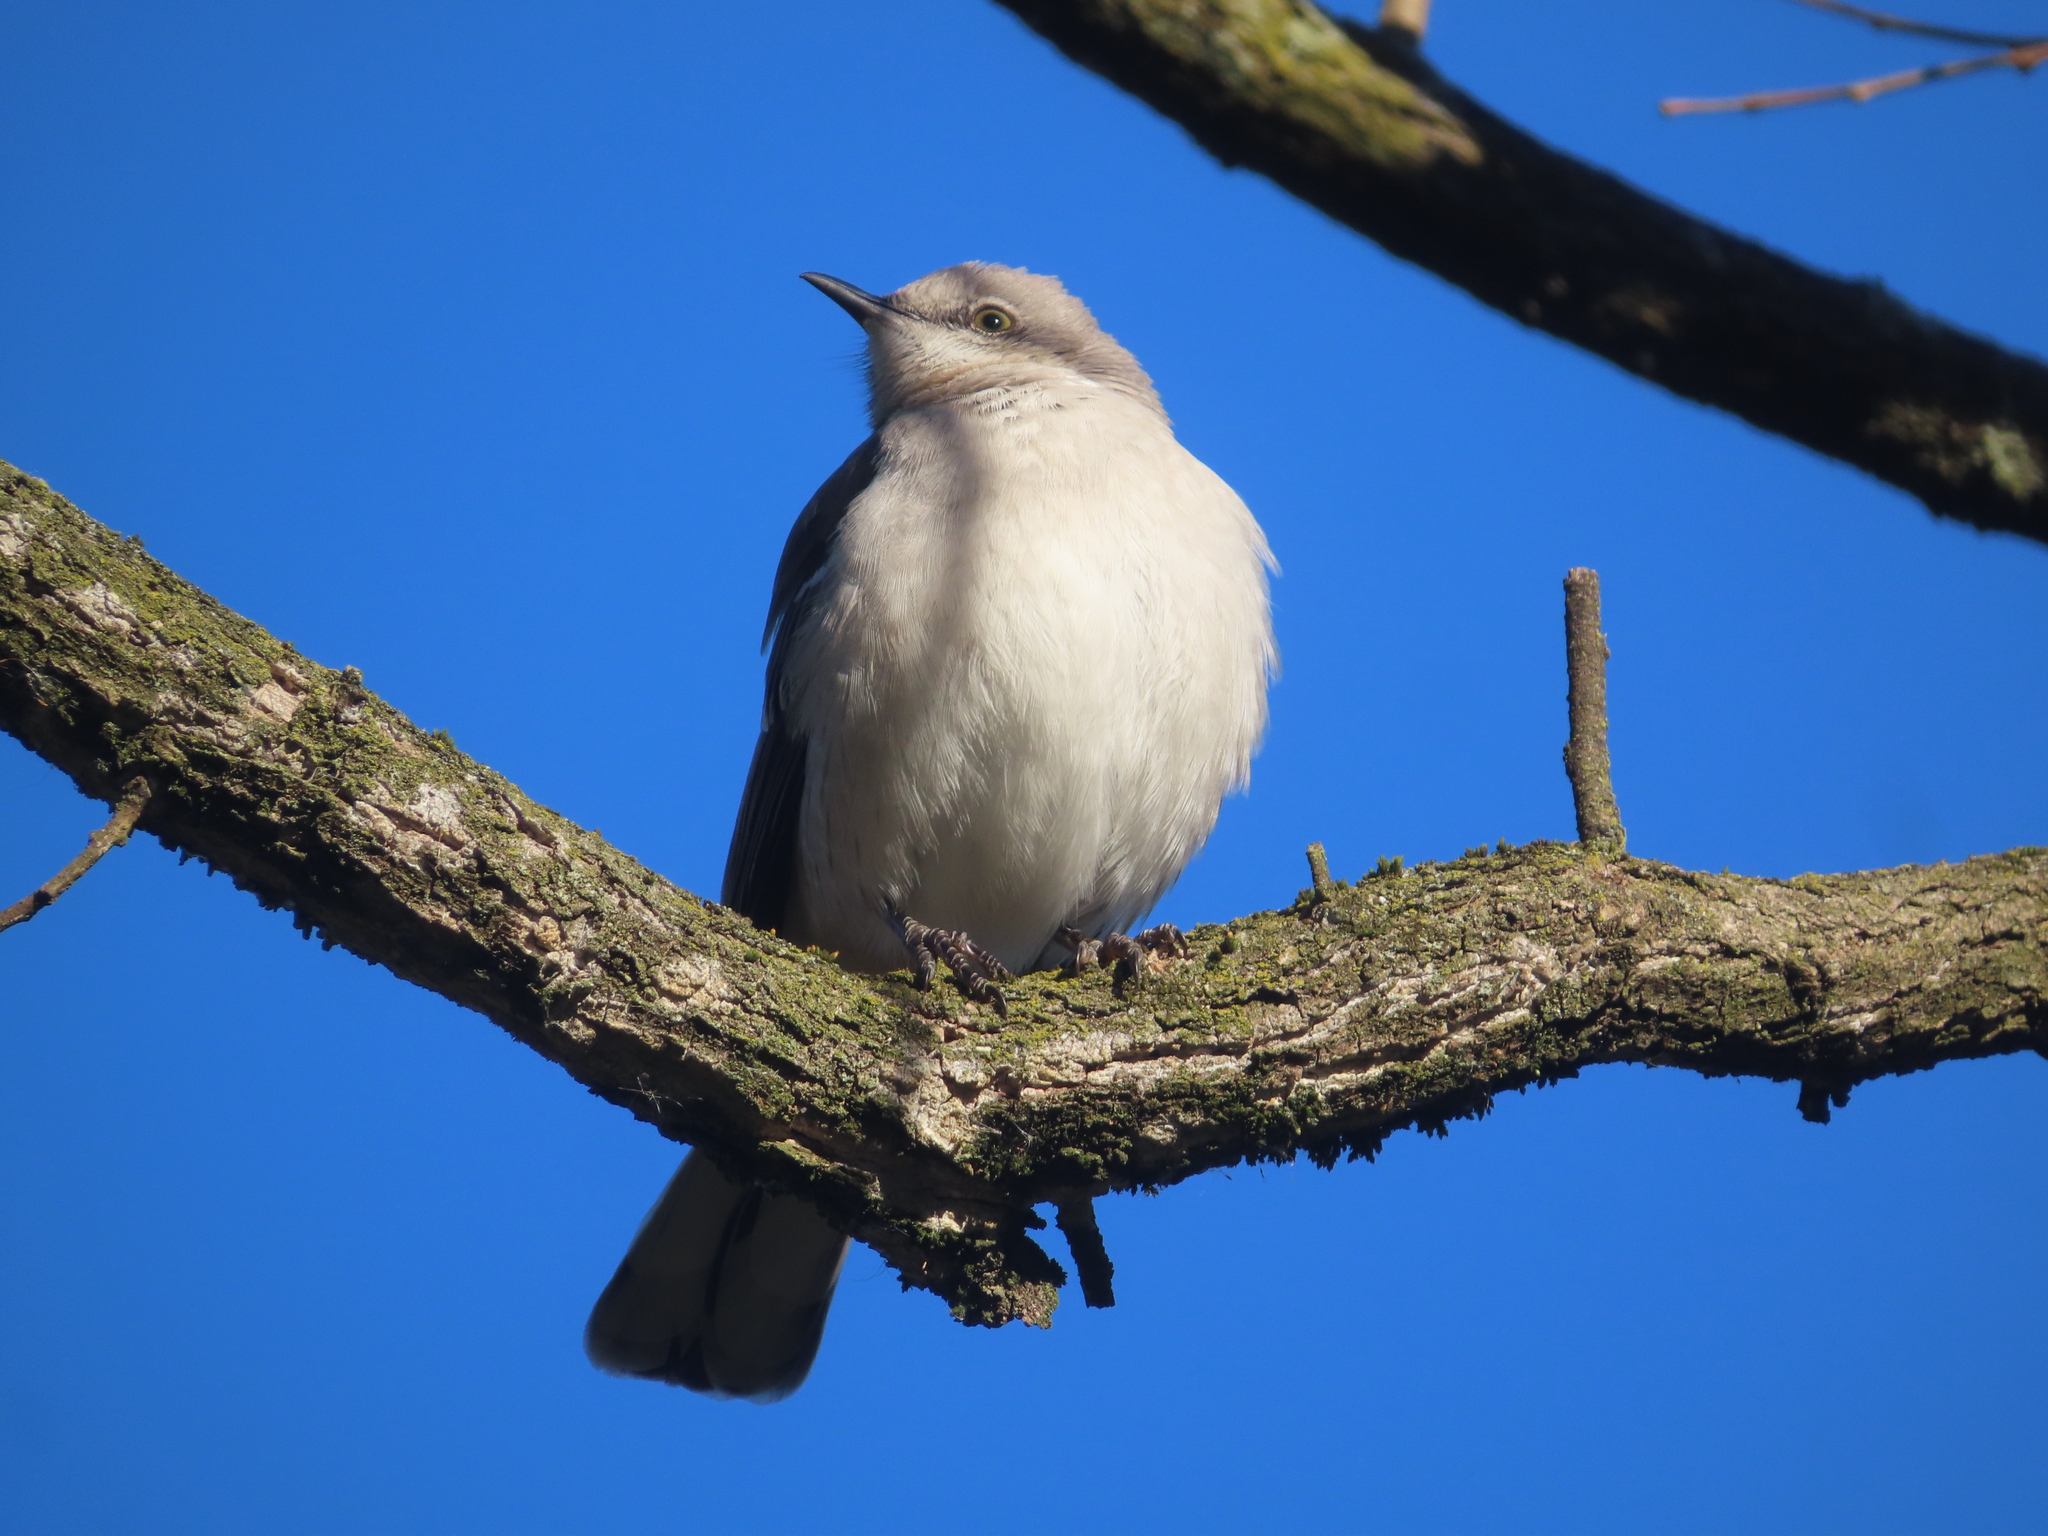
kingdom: Animalia
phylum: Chordata
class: Aves
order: Passeriformes
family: Mimidae
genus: Mimus
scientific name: Mimus polyglottos
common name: Northern mockingbird
